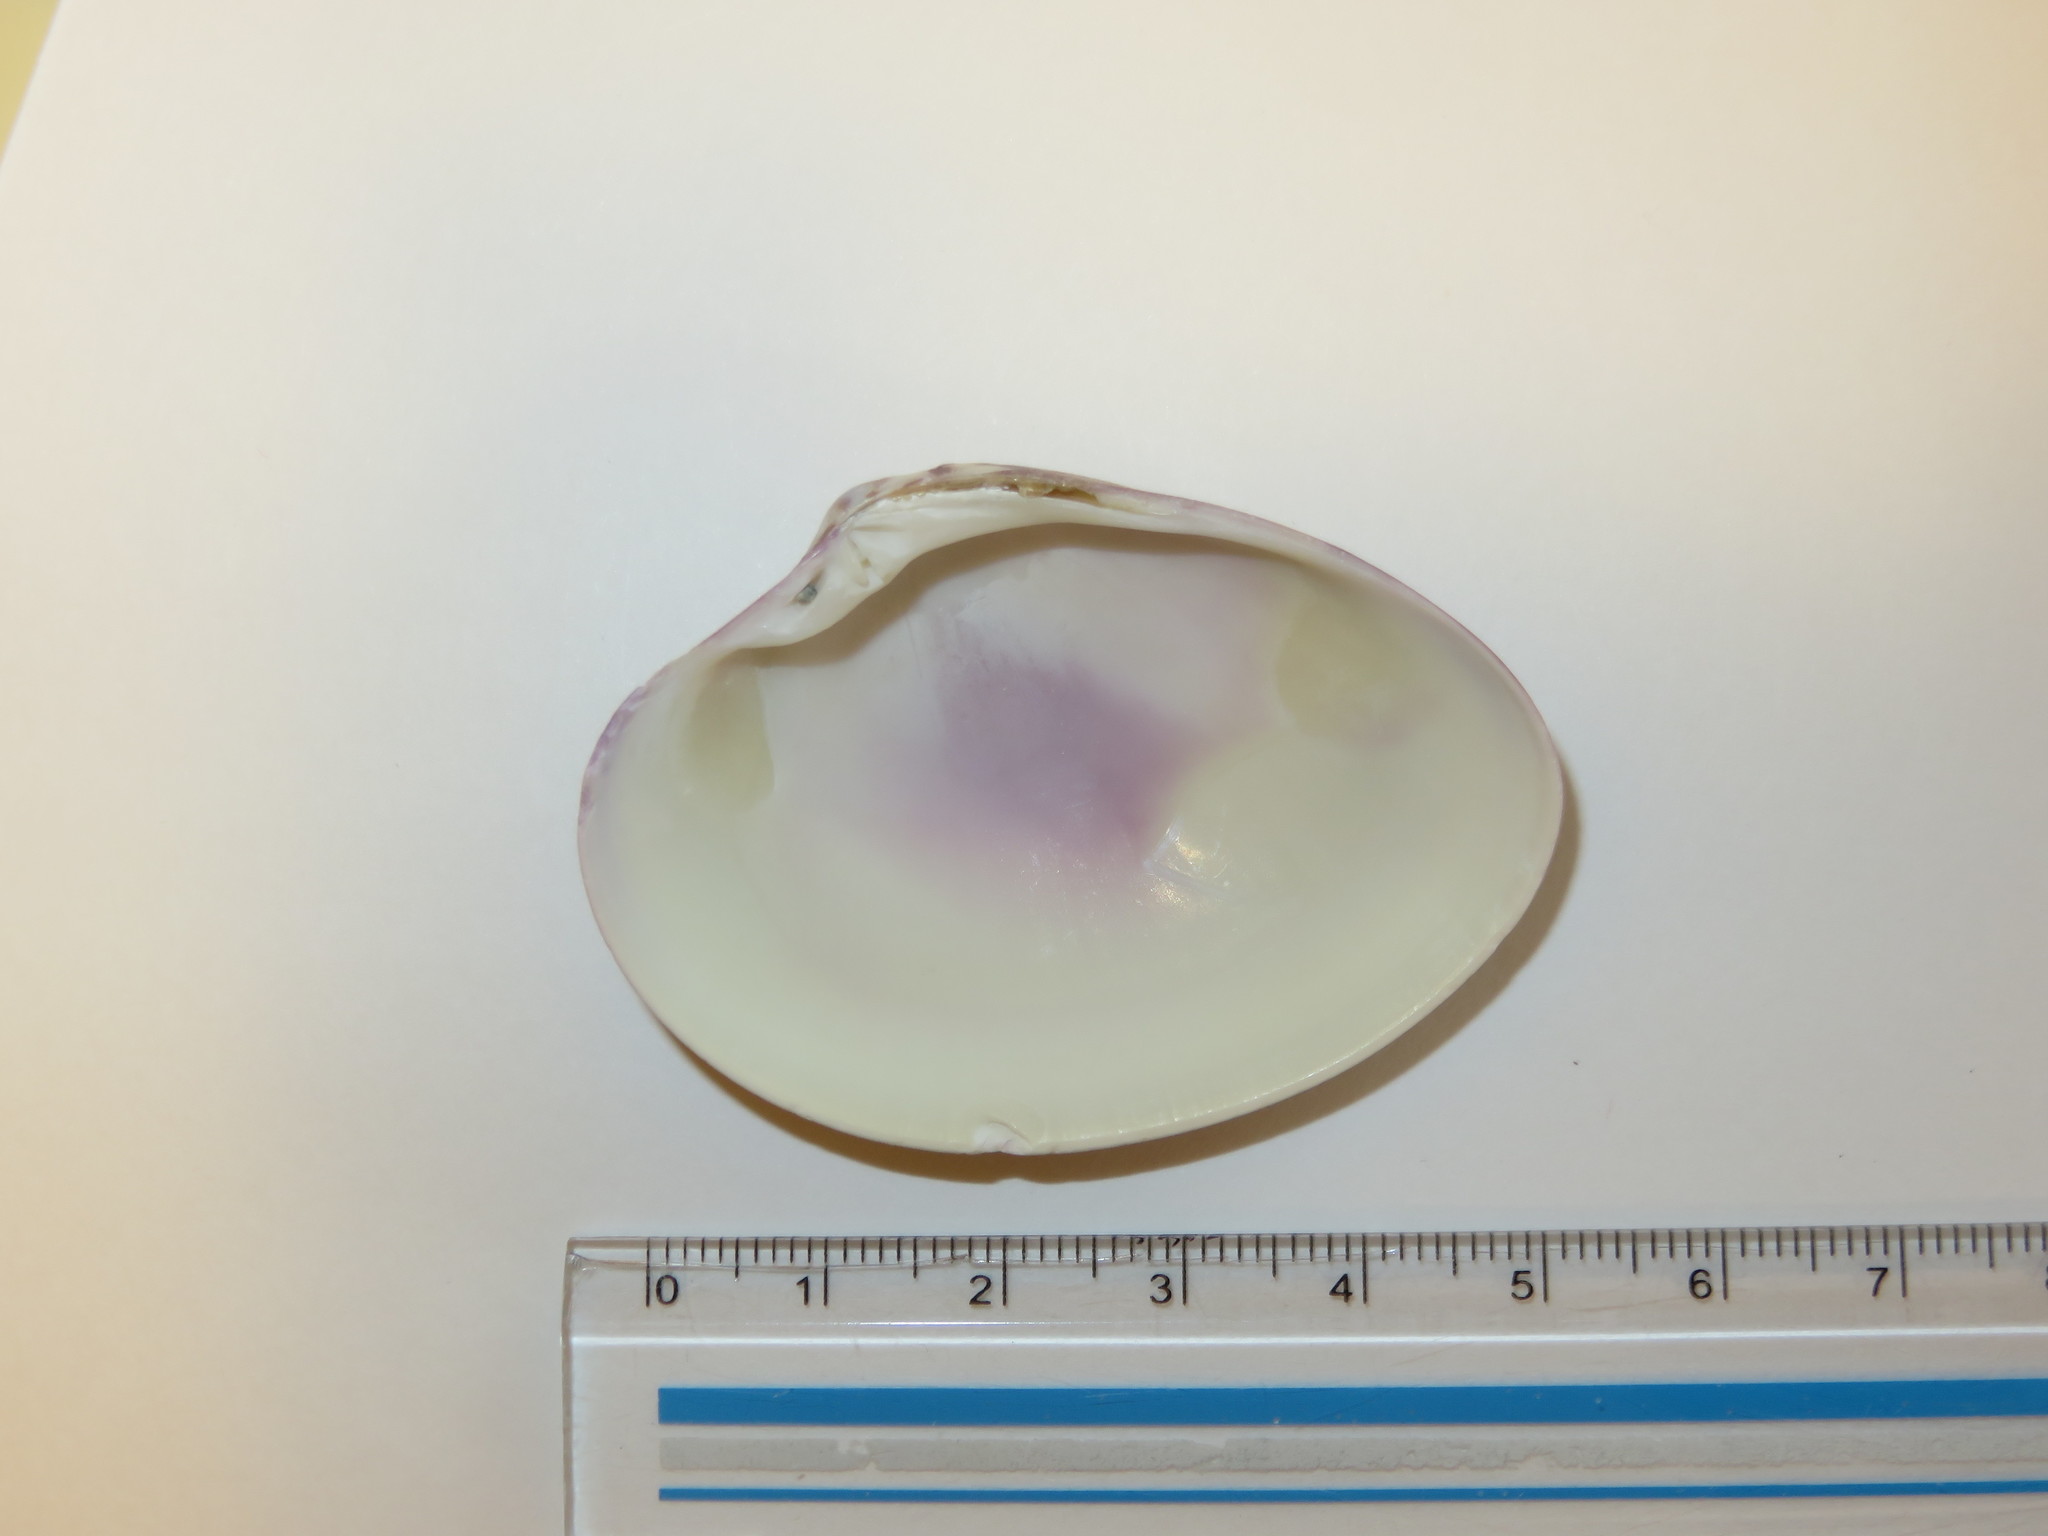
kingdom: Animalia
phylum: Mollusca
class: Bivalvia
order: Venerida
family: Veneridae
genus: Callista
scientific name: Callista chinensis
